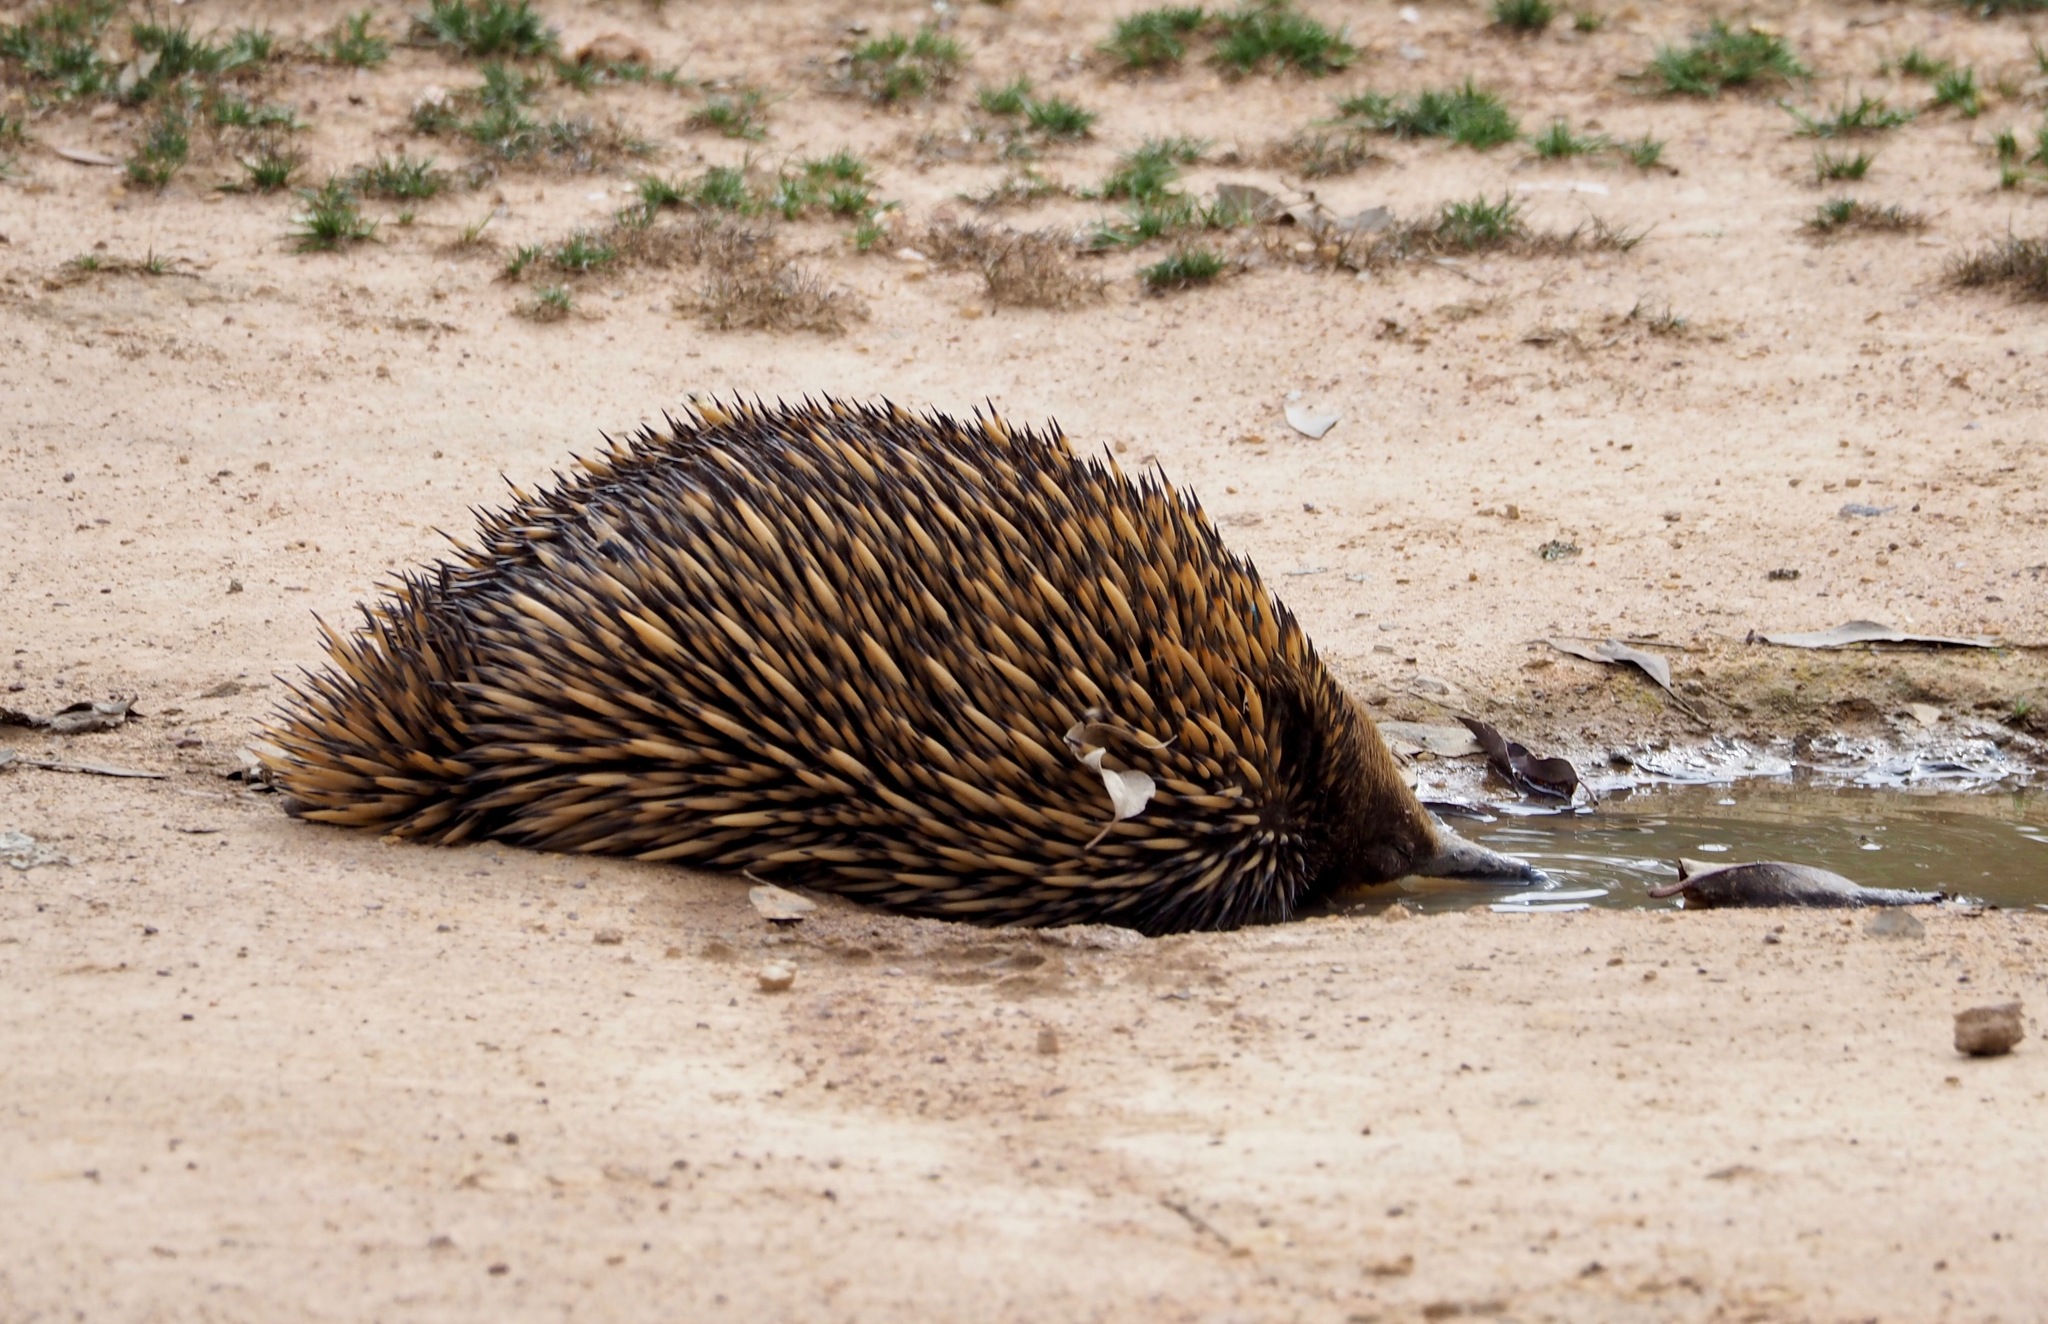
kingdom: Animalia
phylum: Chordata
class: Mammalia
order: Monotremata
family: Tachyglossidae
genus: Tachyglossus
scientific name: Tachyglossus aculeatus
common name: Short-beaked echidna
